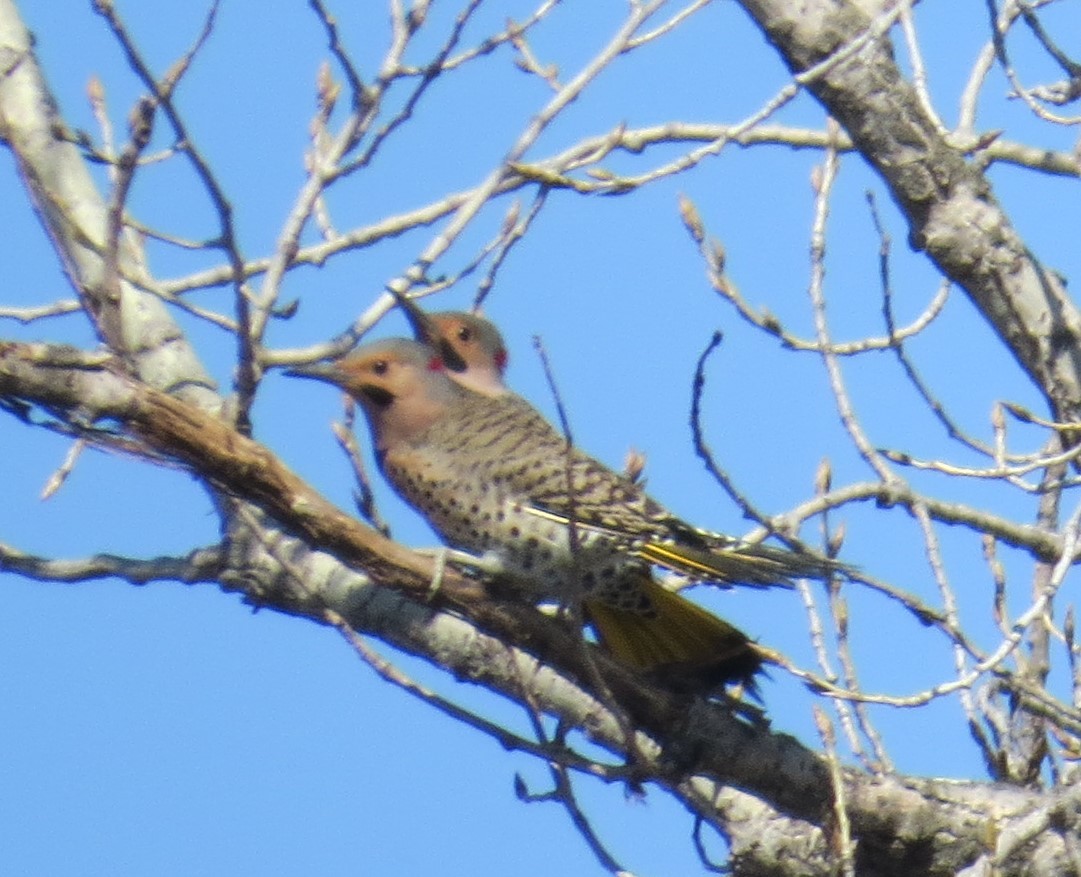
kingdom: Animalia
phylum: Chordata
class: Aves
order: Piciformes
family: Picidae
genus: Colaptes
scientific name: Colaptes auratus
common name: Northern flicker
